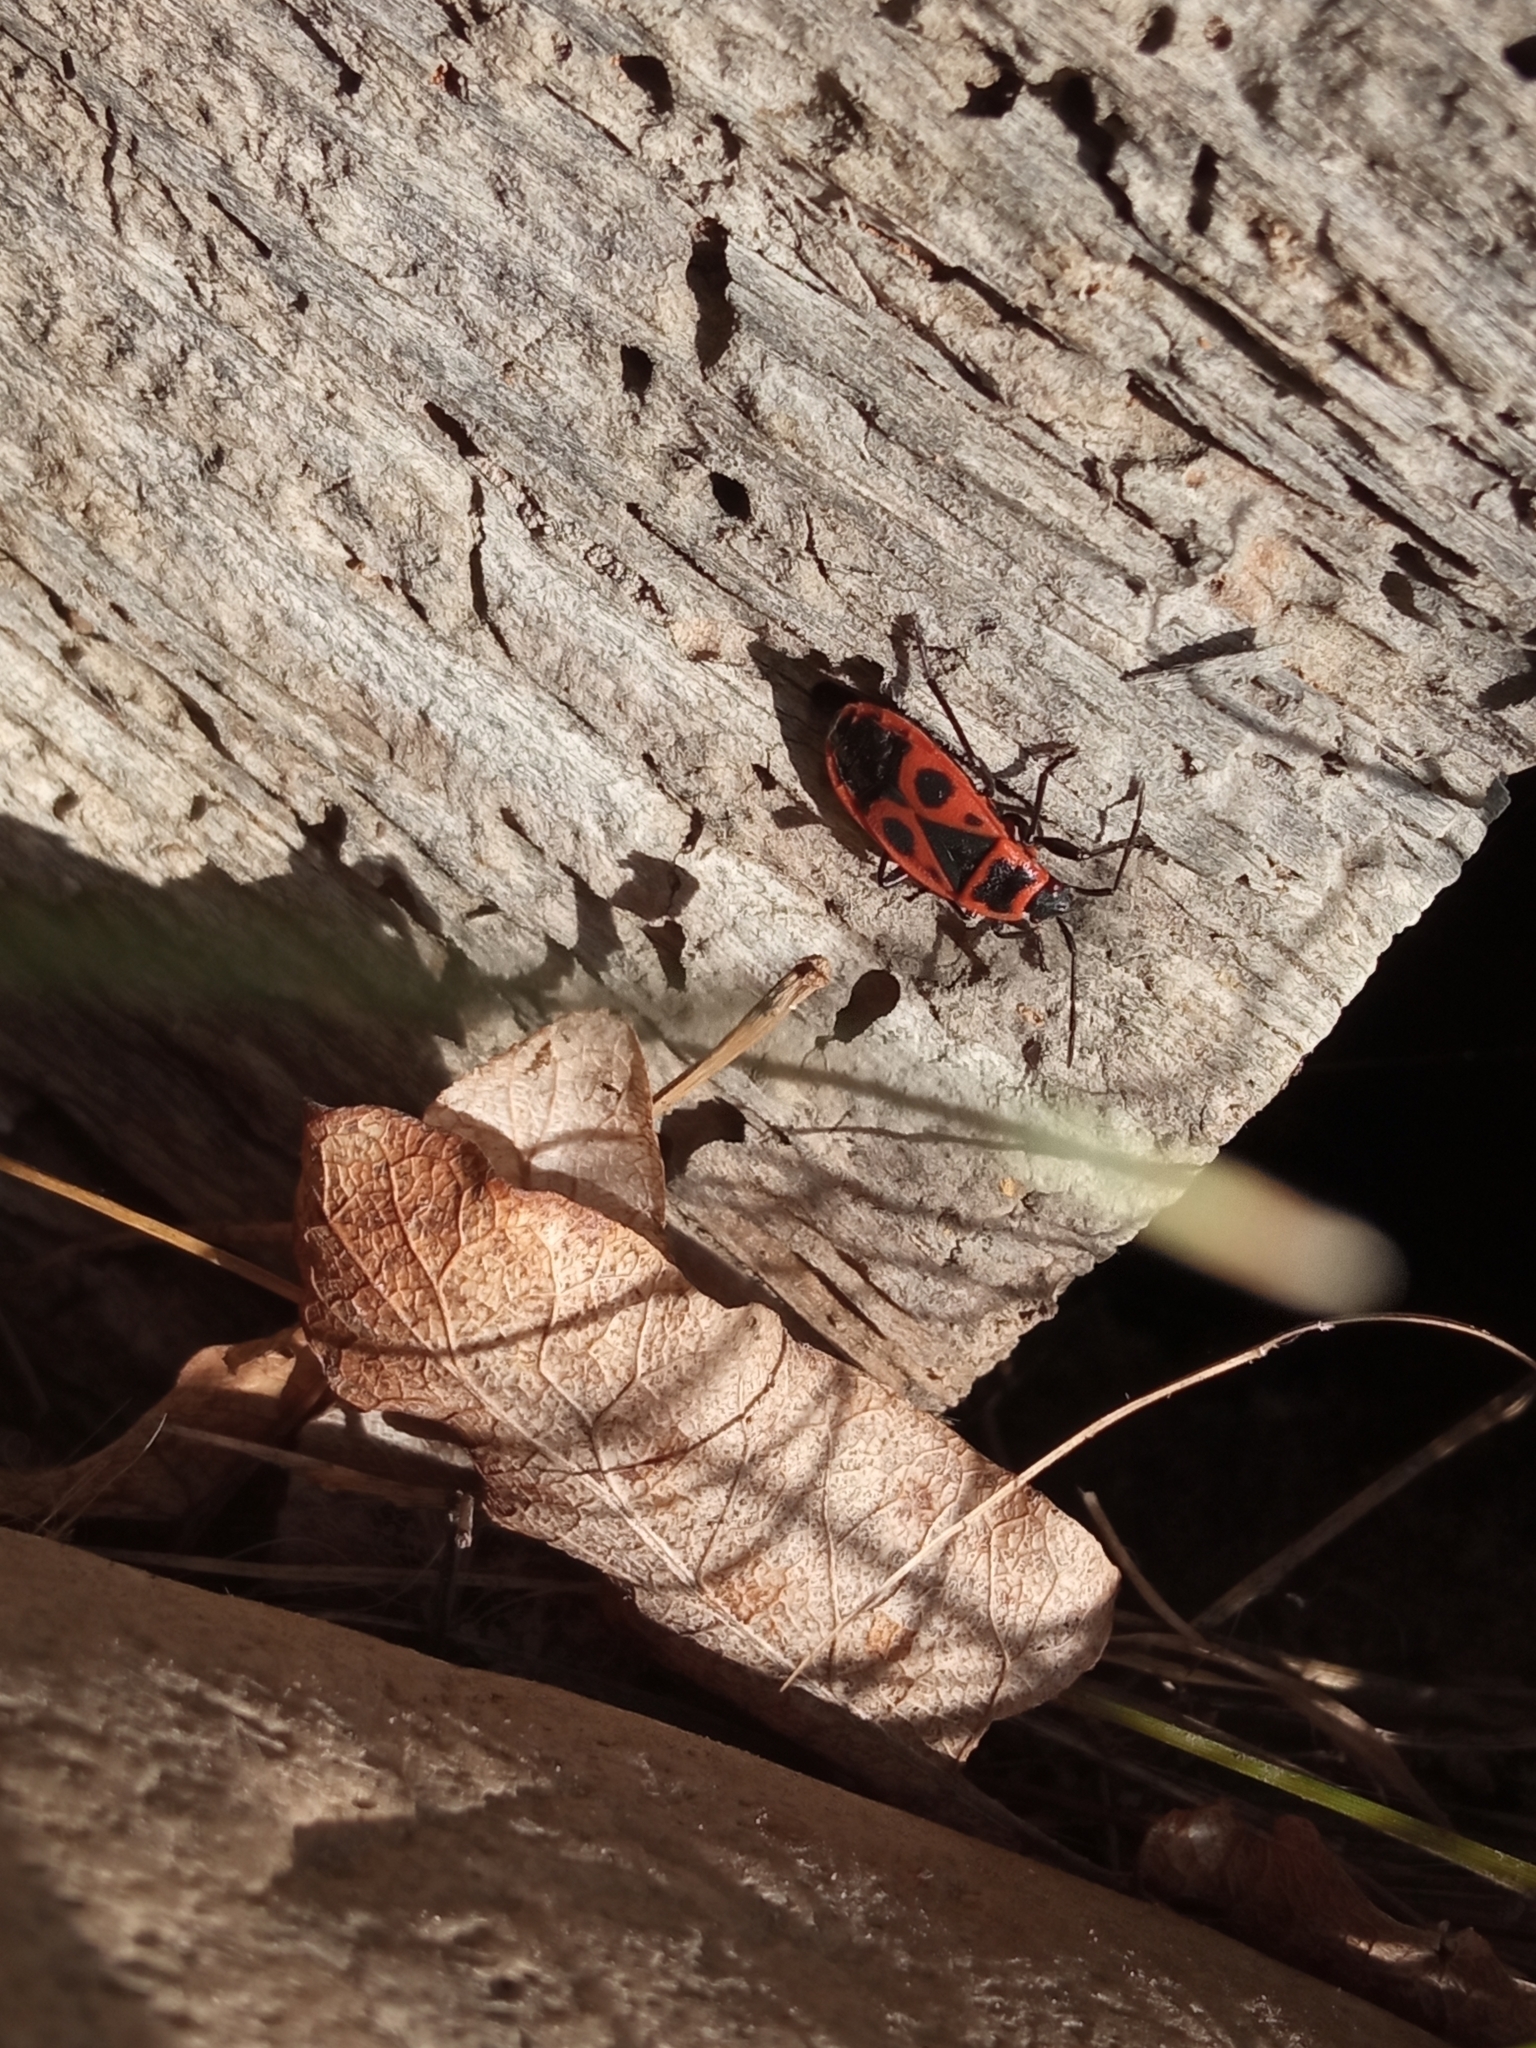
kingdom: Animalia
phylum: Arthropoda
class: Insecta
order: Hemiptera
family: Pyrrhocoridae
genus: Pyrrhocoris
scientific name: Pyrrhocoris apterus
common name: Firebug
